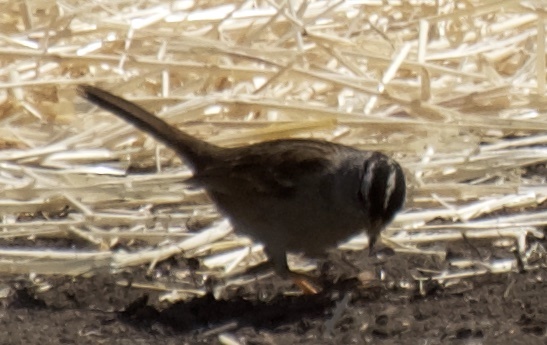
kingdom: Animalia
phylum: Chordata
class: Aves
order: Passeriformes
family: Passerellidae
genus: Zonotrichia
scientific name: Zonotrichia leucophrys
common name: White-crowned sparrow
